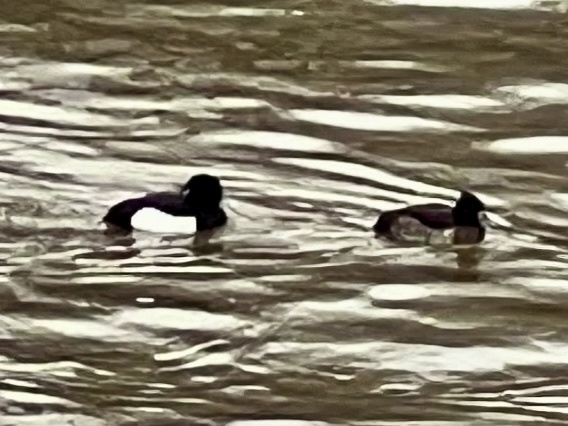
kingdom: Animalia
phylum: Chordata
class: Aves
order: Anseriformes
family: Anatidae
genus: Aythya
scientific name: Aythya fuligula
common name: Tufted duck
